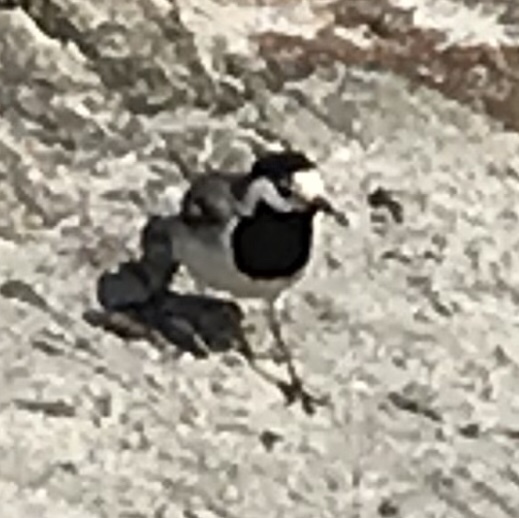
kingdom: Animalia
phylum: Chordata
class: Aves
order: Passeriformes
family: Motacillidae
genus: Motacilla
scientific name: Motacilla alba
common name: White wagtail
